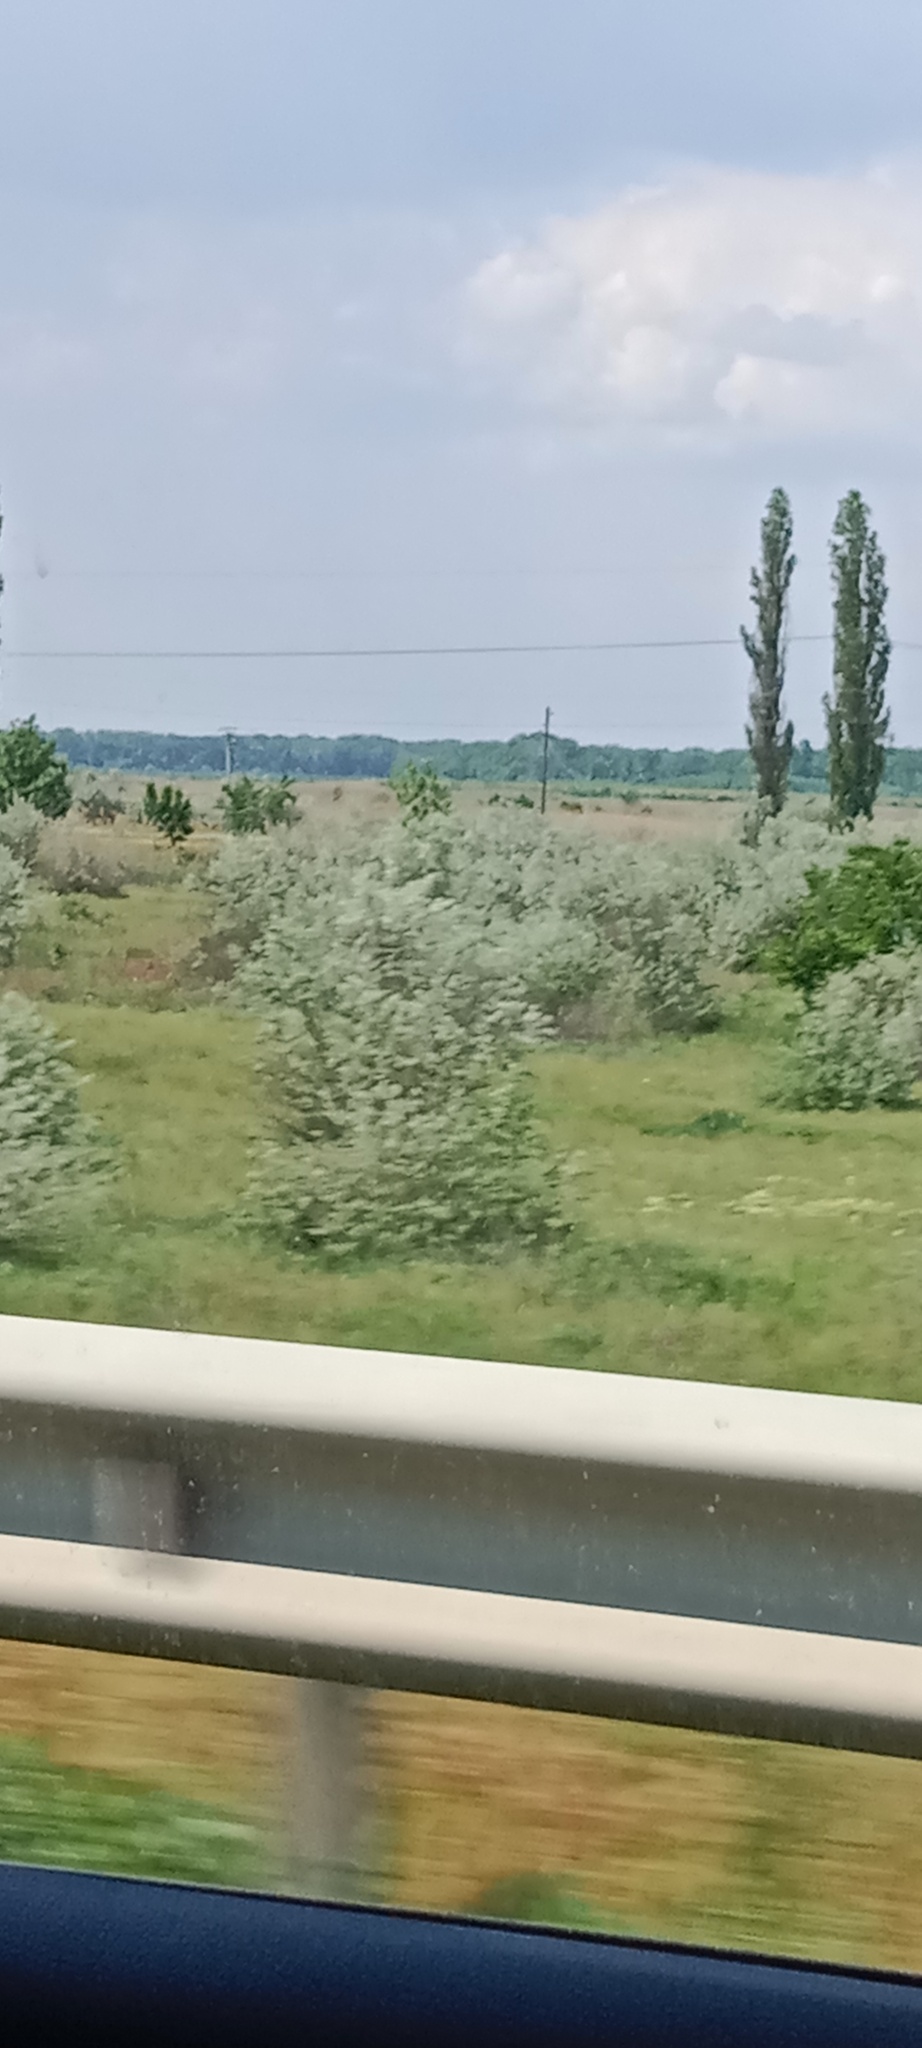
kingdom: Plantae
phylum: Tracheophyta
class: Magnoliopsida
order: Rosales
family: Elaeagnaceae
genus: Elaeagnus
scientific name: Elaeagnus angustifolia
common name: Russian olive
